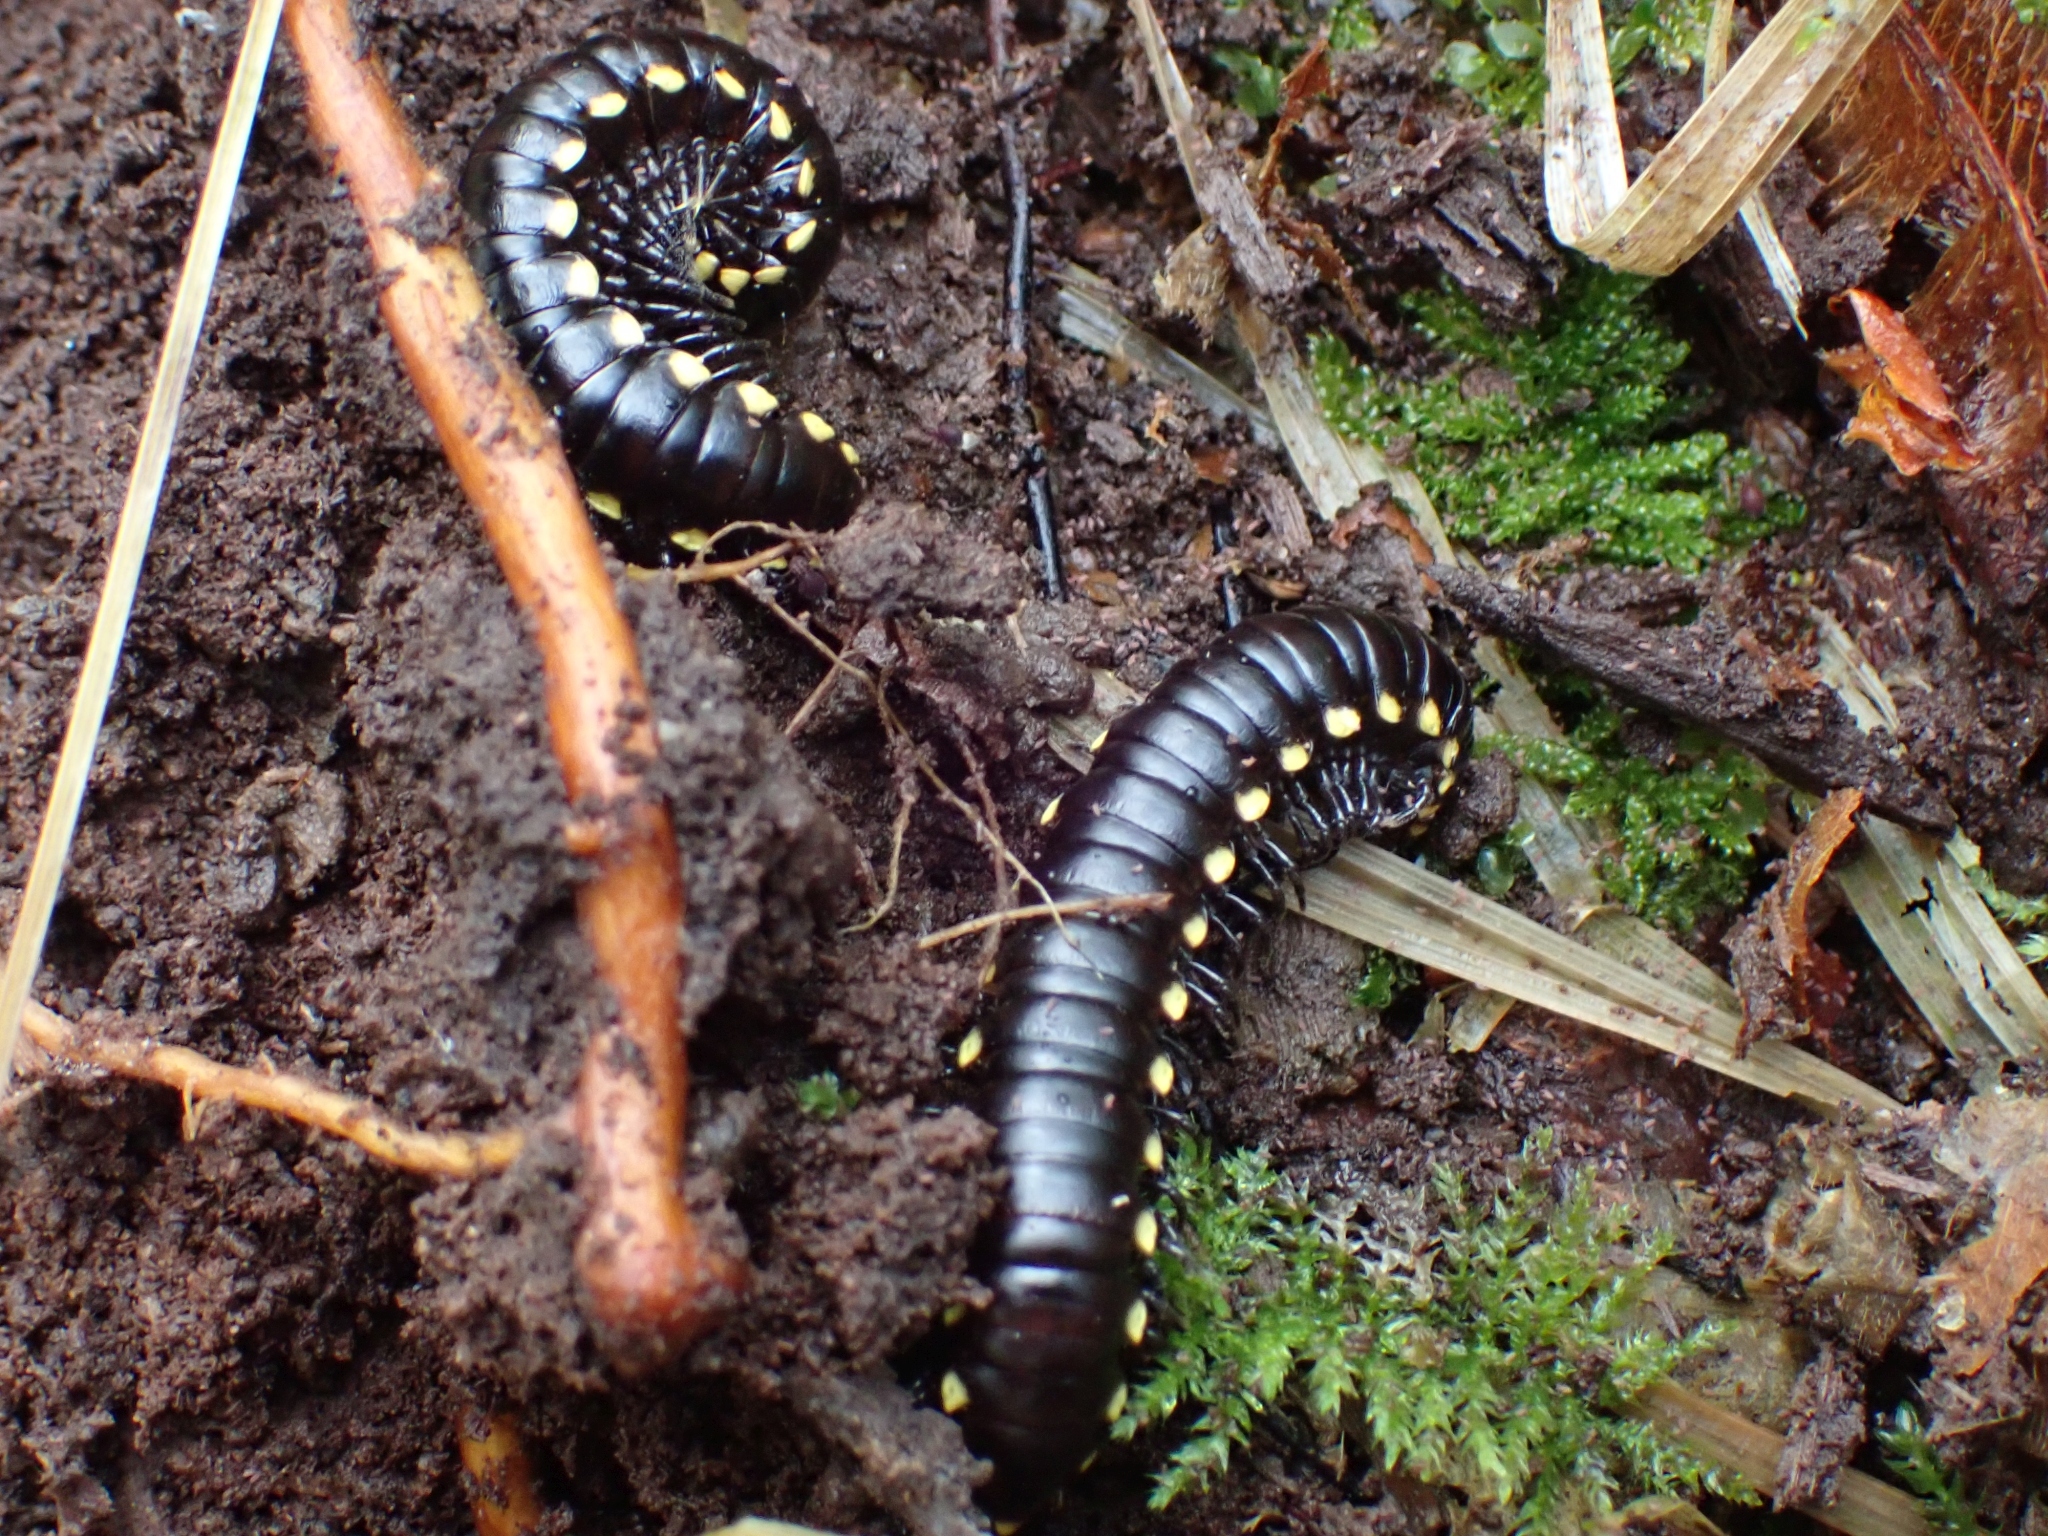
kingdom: Animalia
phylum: Arthropoda
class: Diplopoda
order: Polydesmida
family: Xystodesmidae
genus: Harpaphe
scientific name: Harpaphe haydeniana
